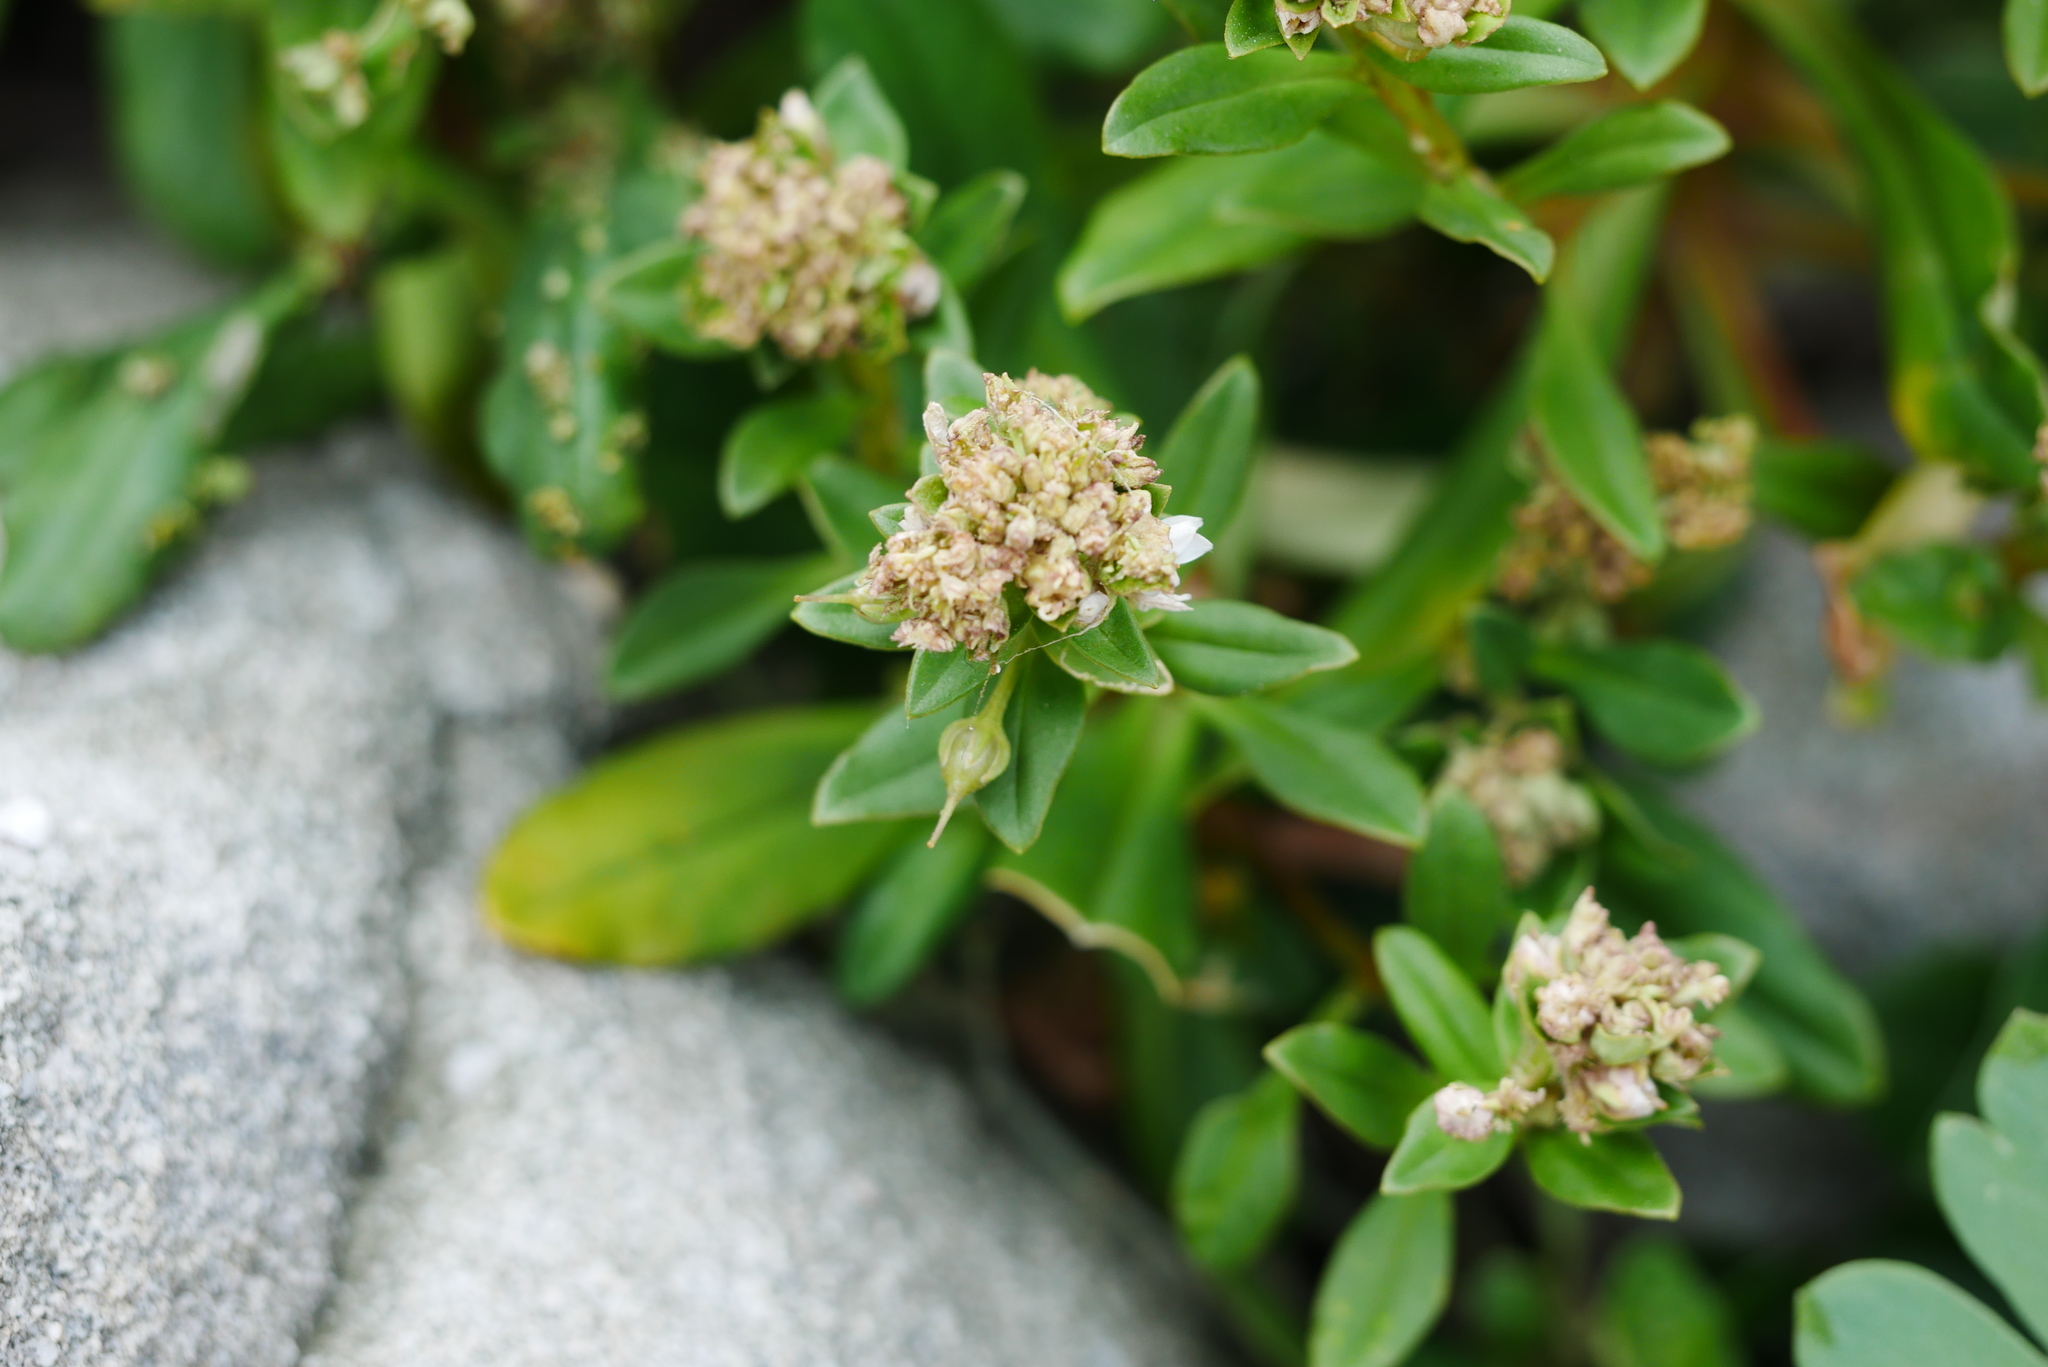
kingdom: Plantae
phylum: Tracheophyta
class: Magnoliopsida
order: Ericales
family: Primulaceae
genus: Lysimachia
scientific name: Lysimachia mauritiana
